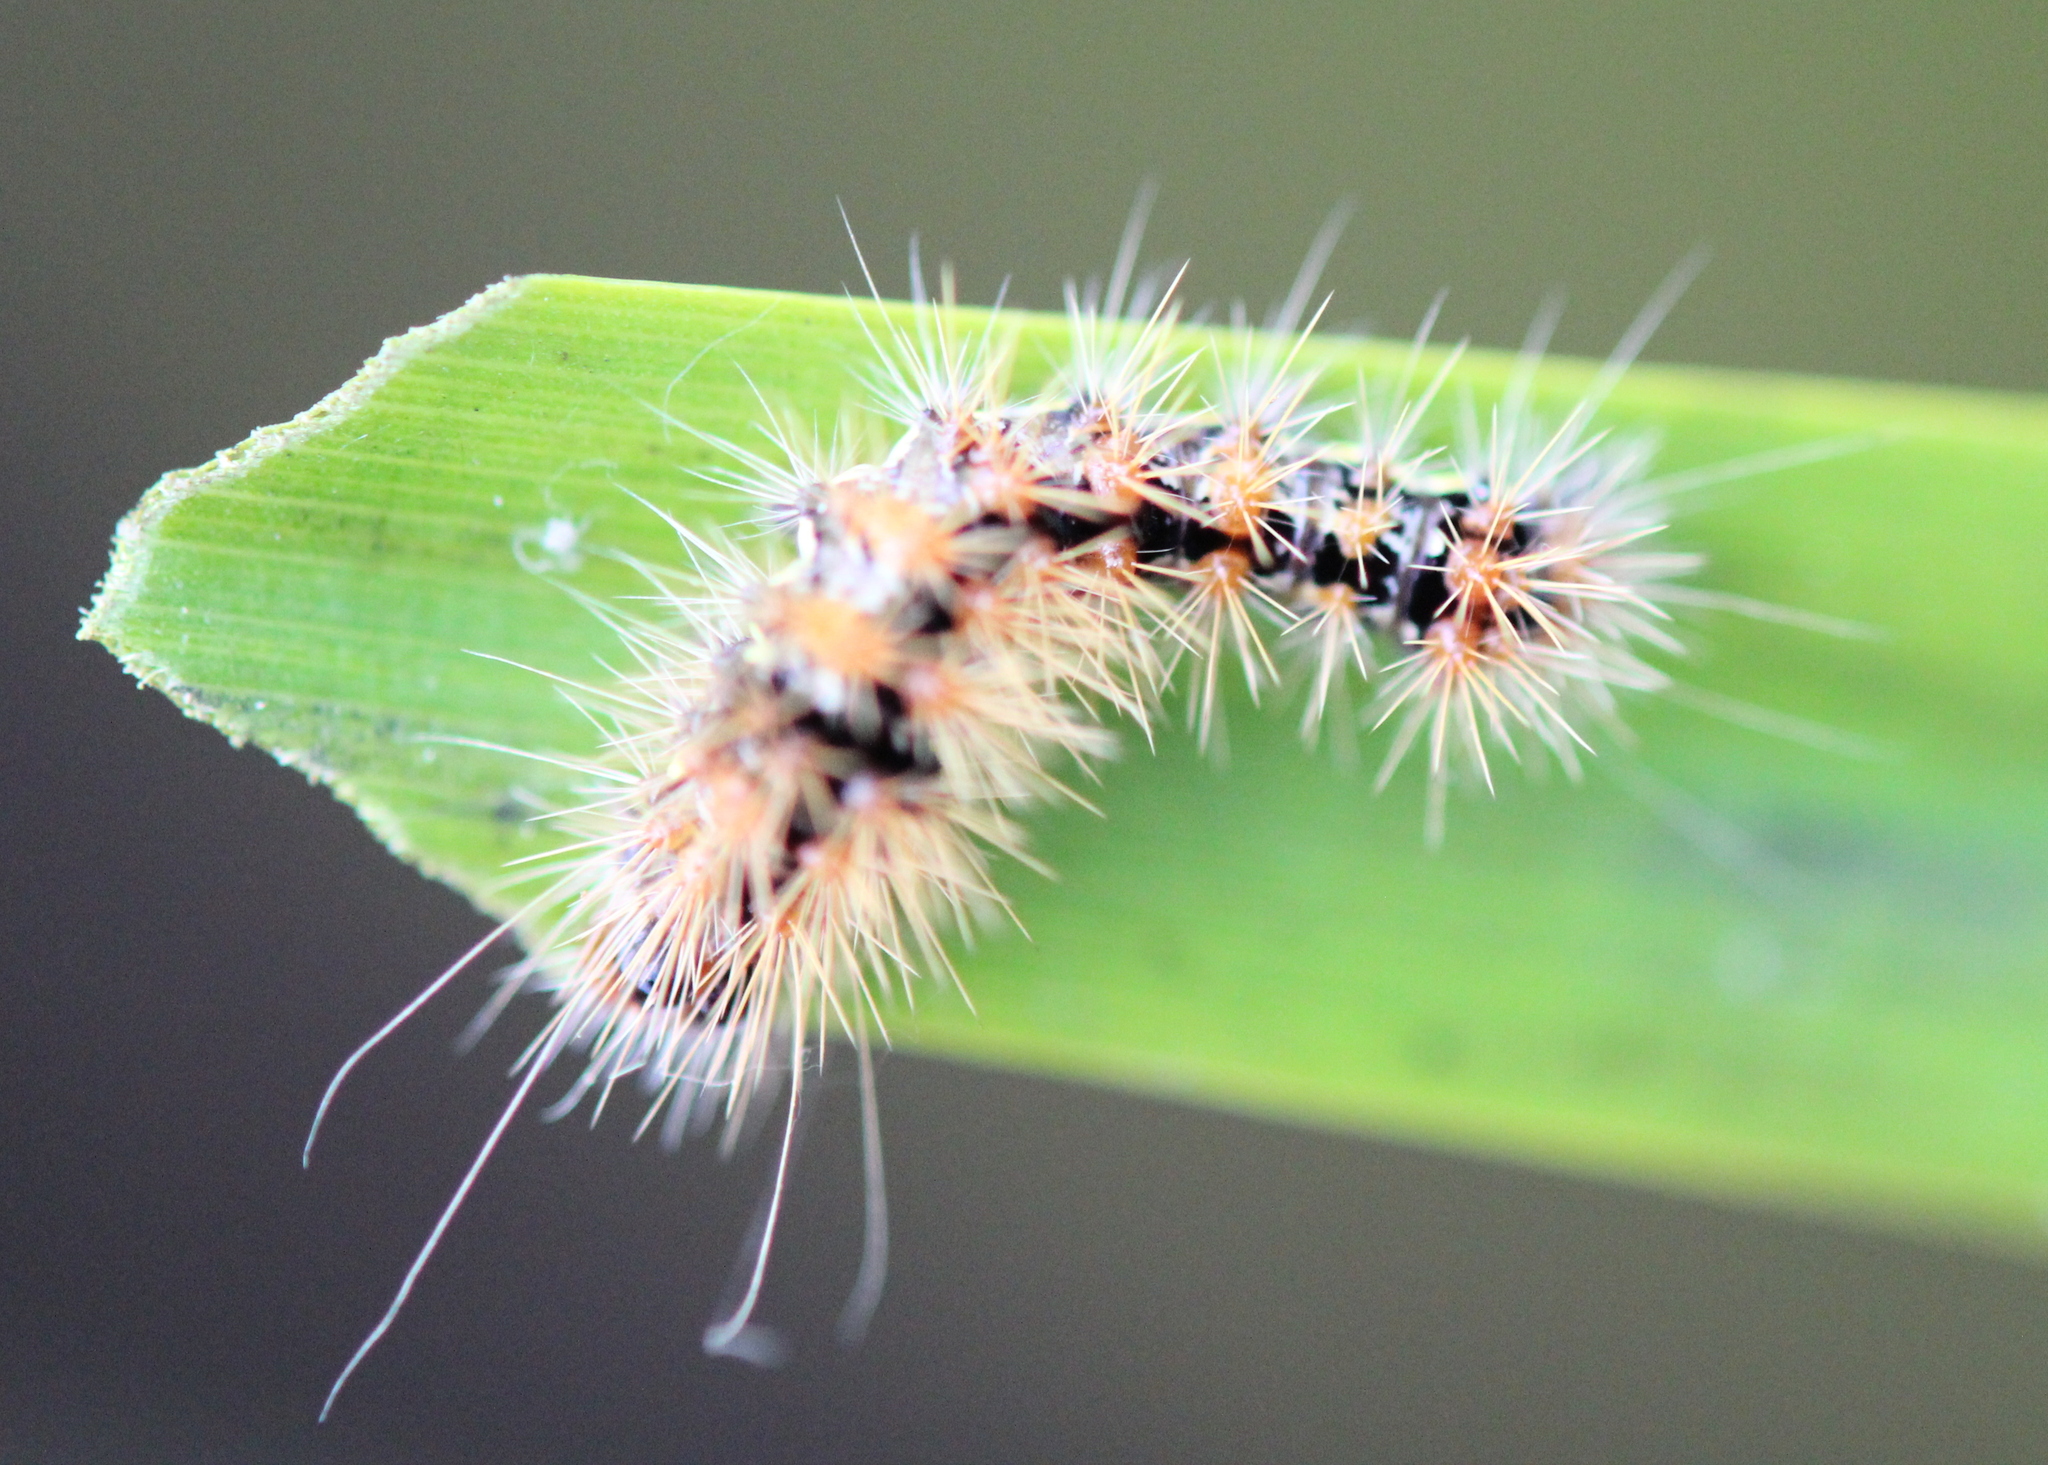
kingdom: Animalia
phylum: Arthropoda
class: Insecta
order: Lepidoptera
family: Noctuidae
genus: Acronicta
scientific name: Acronicta oblinita
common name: Smeared dagger
